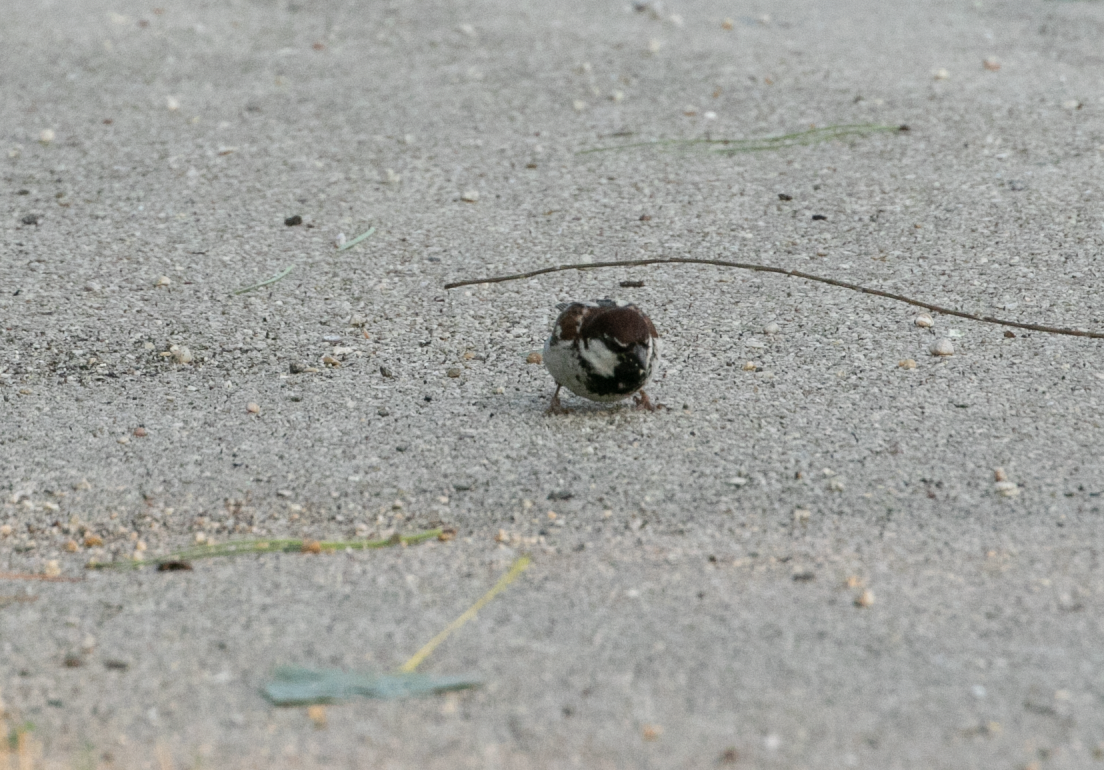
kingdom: Animalia
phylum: Chordata
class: Aves
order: Passeriformes
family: Passeridae
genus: Passer
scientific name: Passer italiae
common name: Italian sparrow
